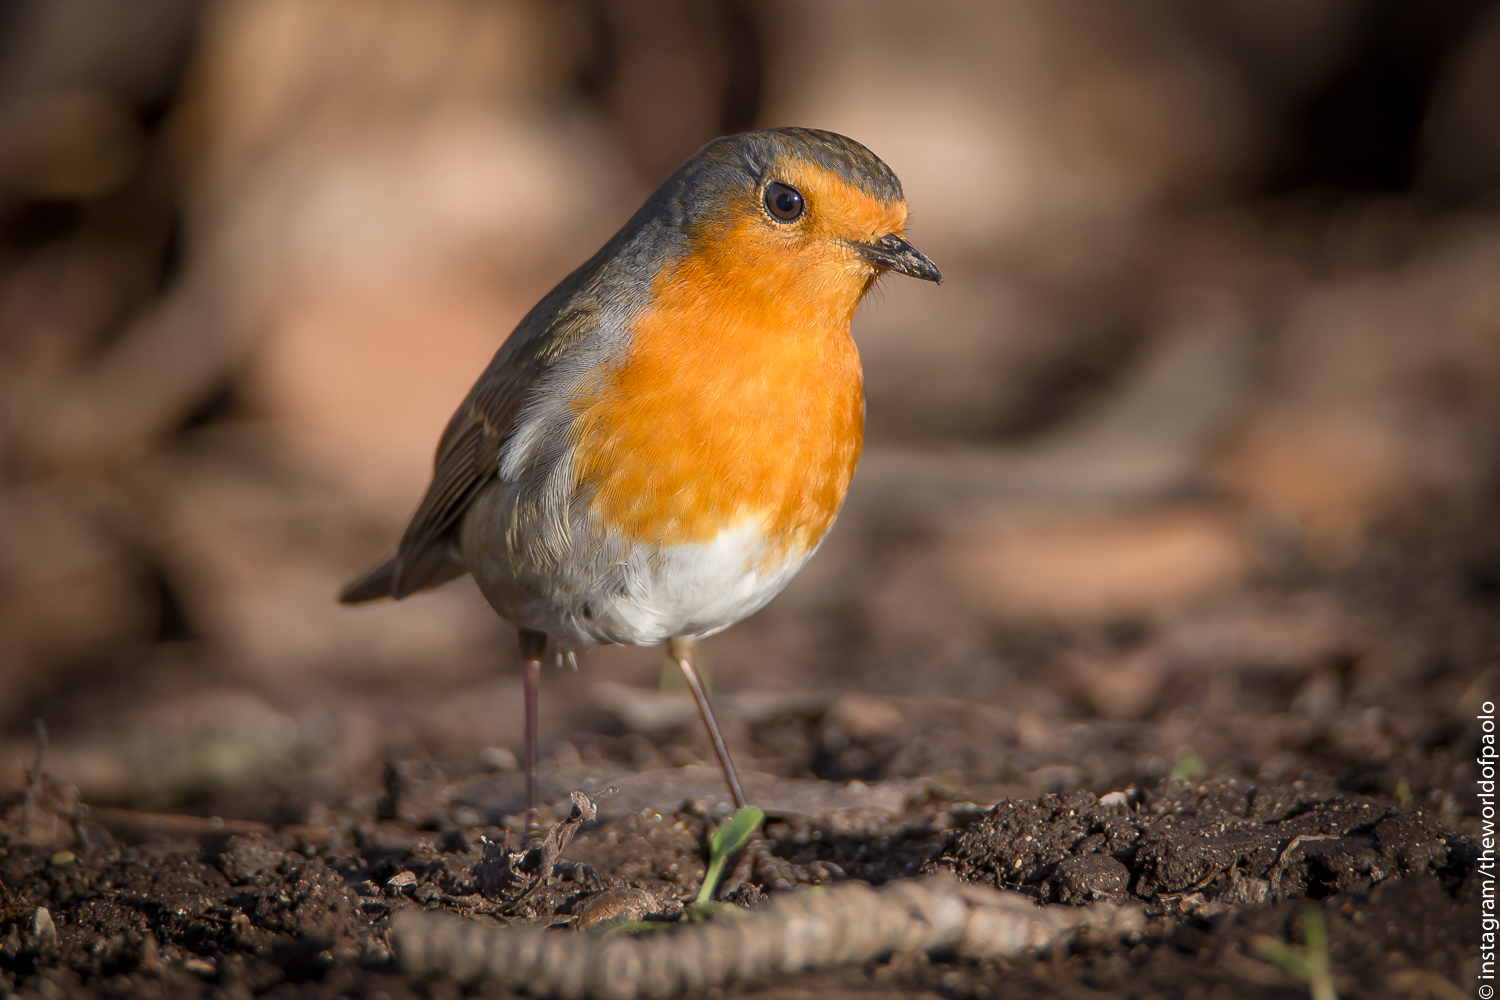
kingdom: Animalia
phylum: Chordata
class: Aves
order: Passeriformes
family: Muscicapidae
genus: Erithacus
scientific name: Erithacus rubecula
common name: European robin
